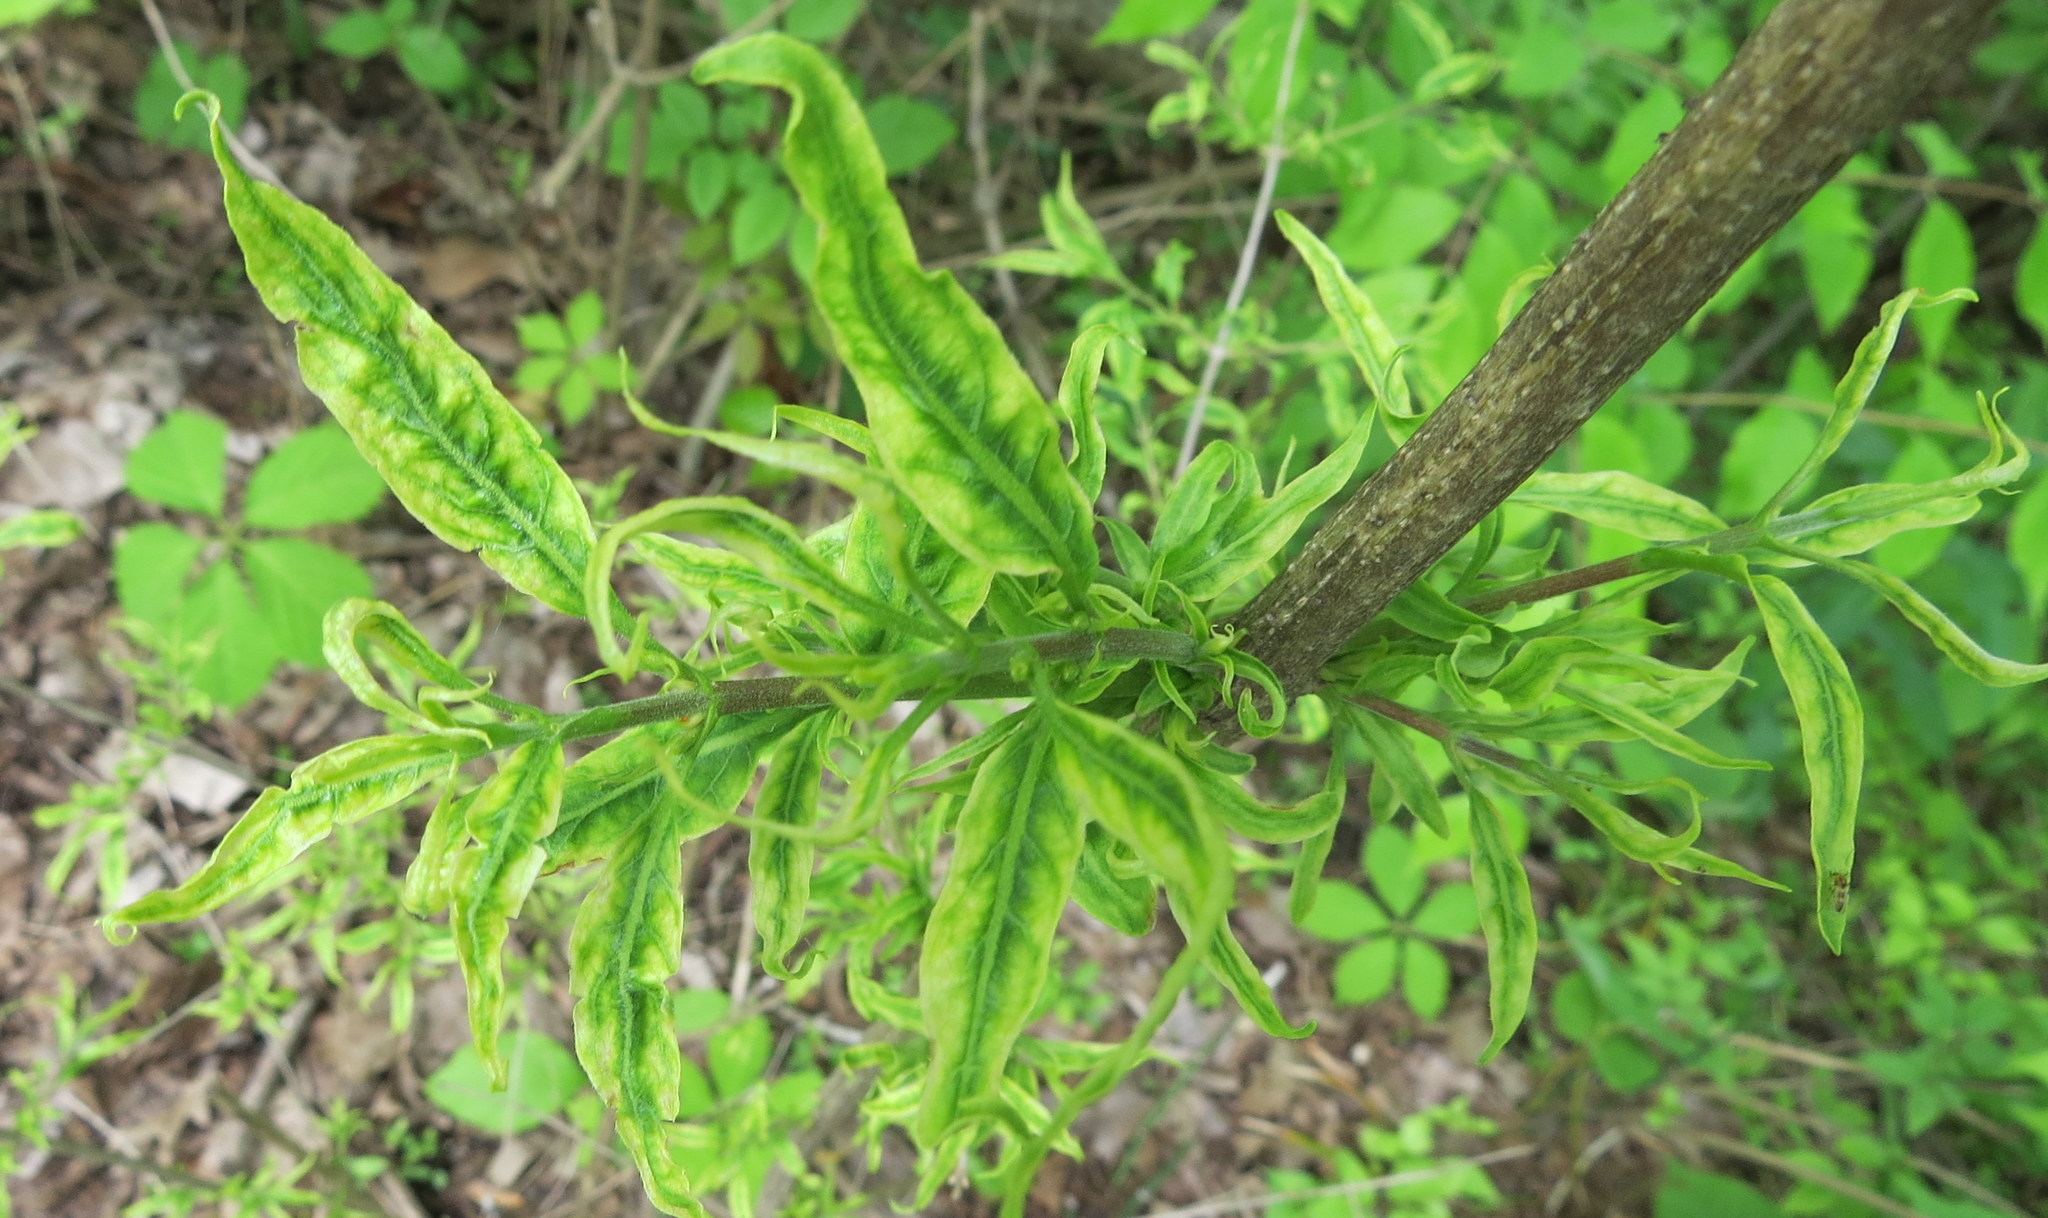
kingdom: Bacteria
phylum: Firmicutes
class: Bacilli
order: Acholeplasmatales
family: Acholeplasmataceae
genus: Phytoplasma
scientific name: Phytoplasma
